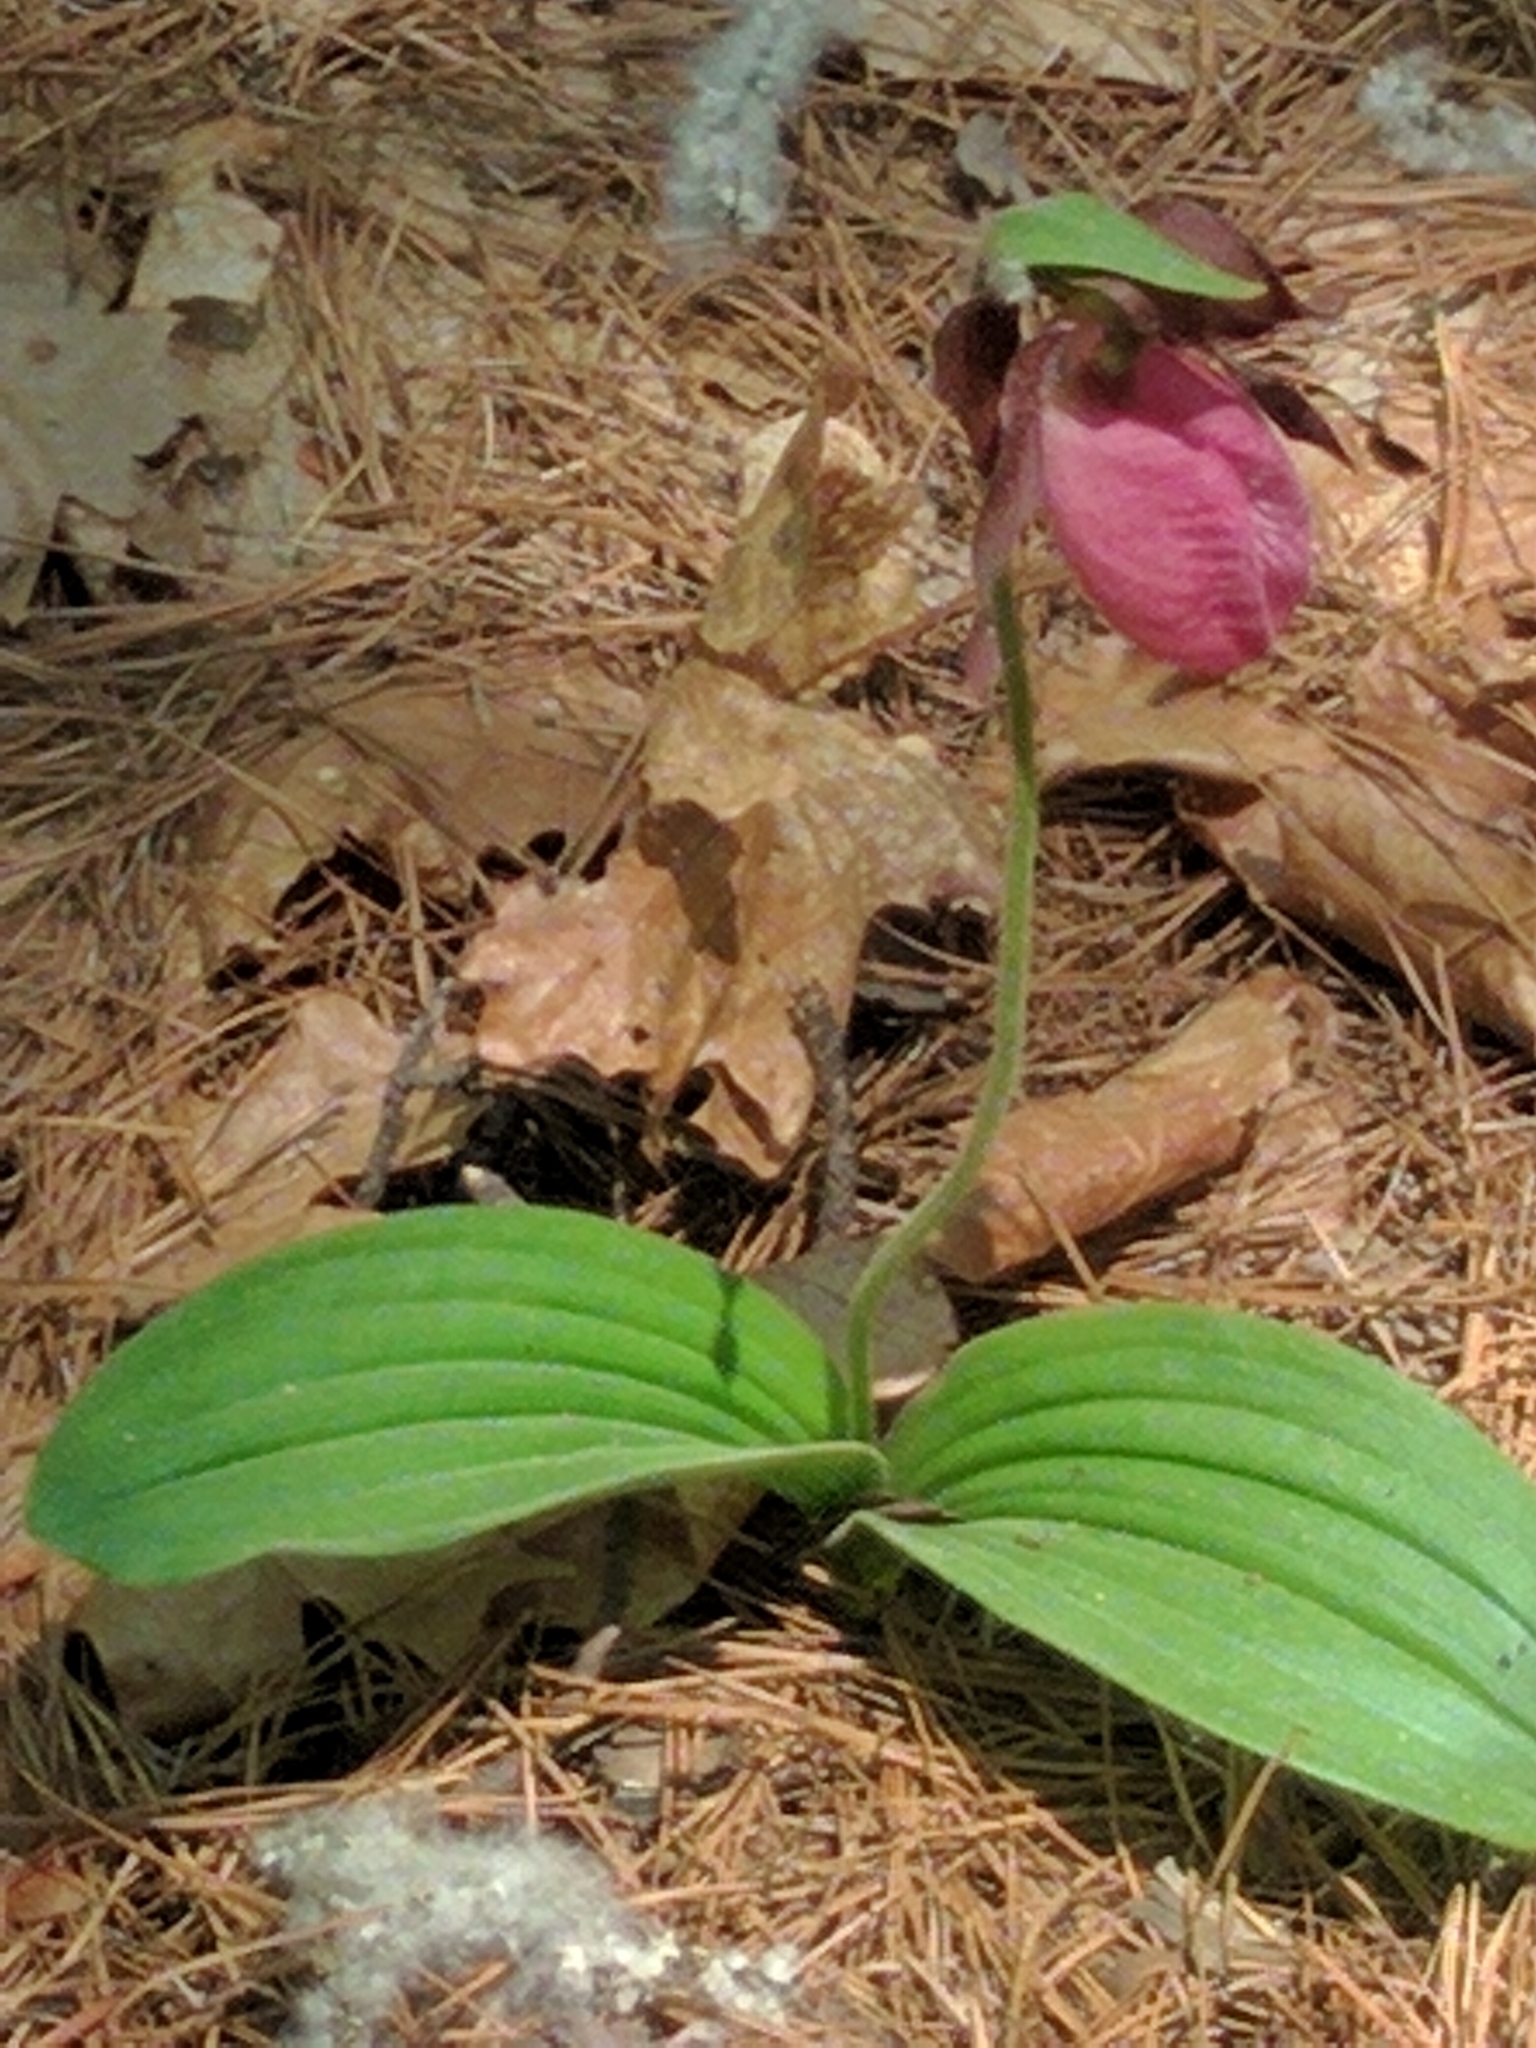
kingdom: Plantae
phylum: Tracheophyta
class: Liliopsida
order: Asparagales
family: Orchidaceae
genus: Cypripedium
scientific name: Cypripedium acaule
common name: Pink lady's-slipper
